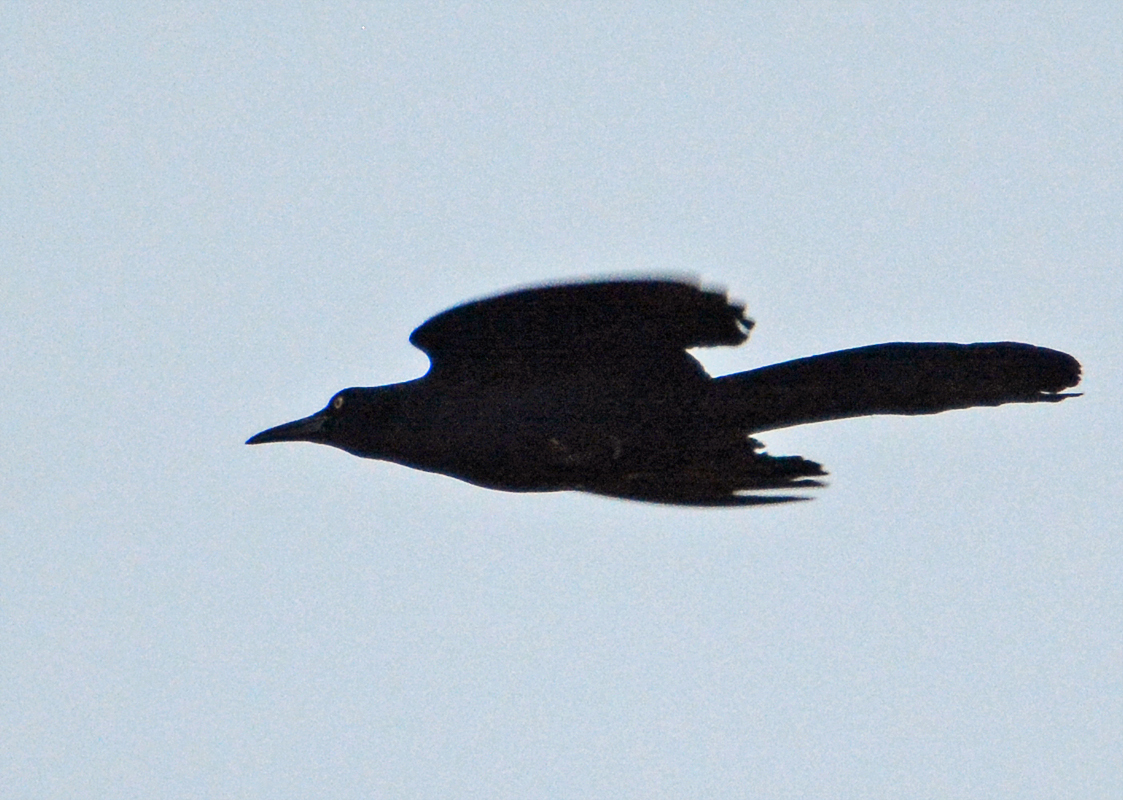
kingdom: Animalia
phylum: Chordata
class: Aves
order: Passeriformes
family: Icteridae
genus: Quiscalus
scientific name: Quiscalus mexicanus
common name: Great-tailed grackle
